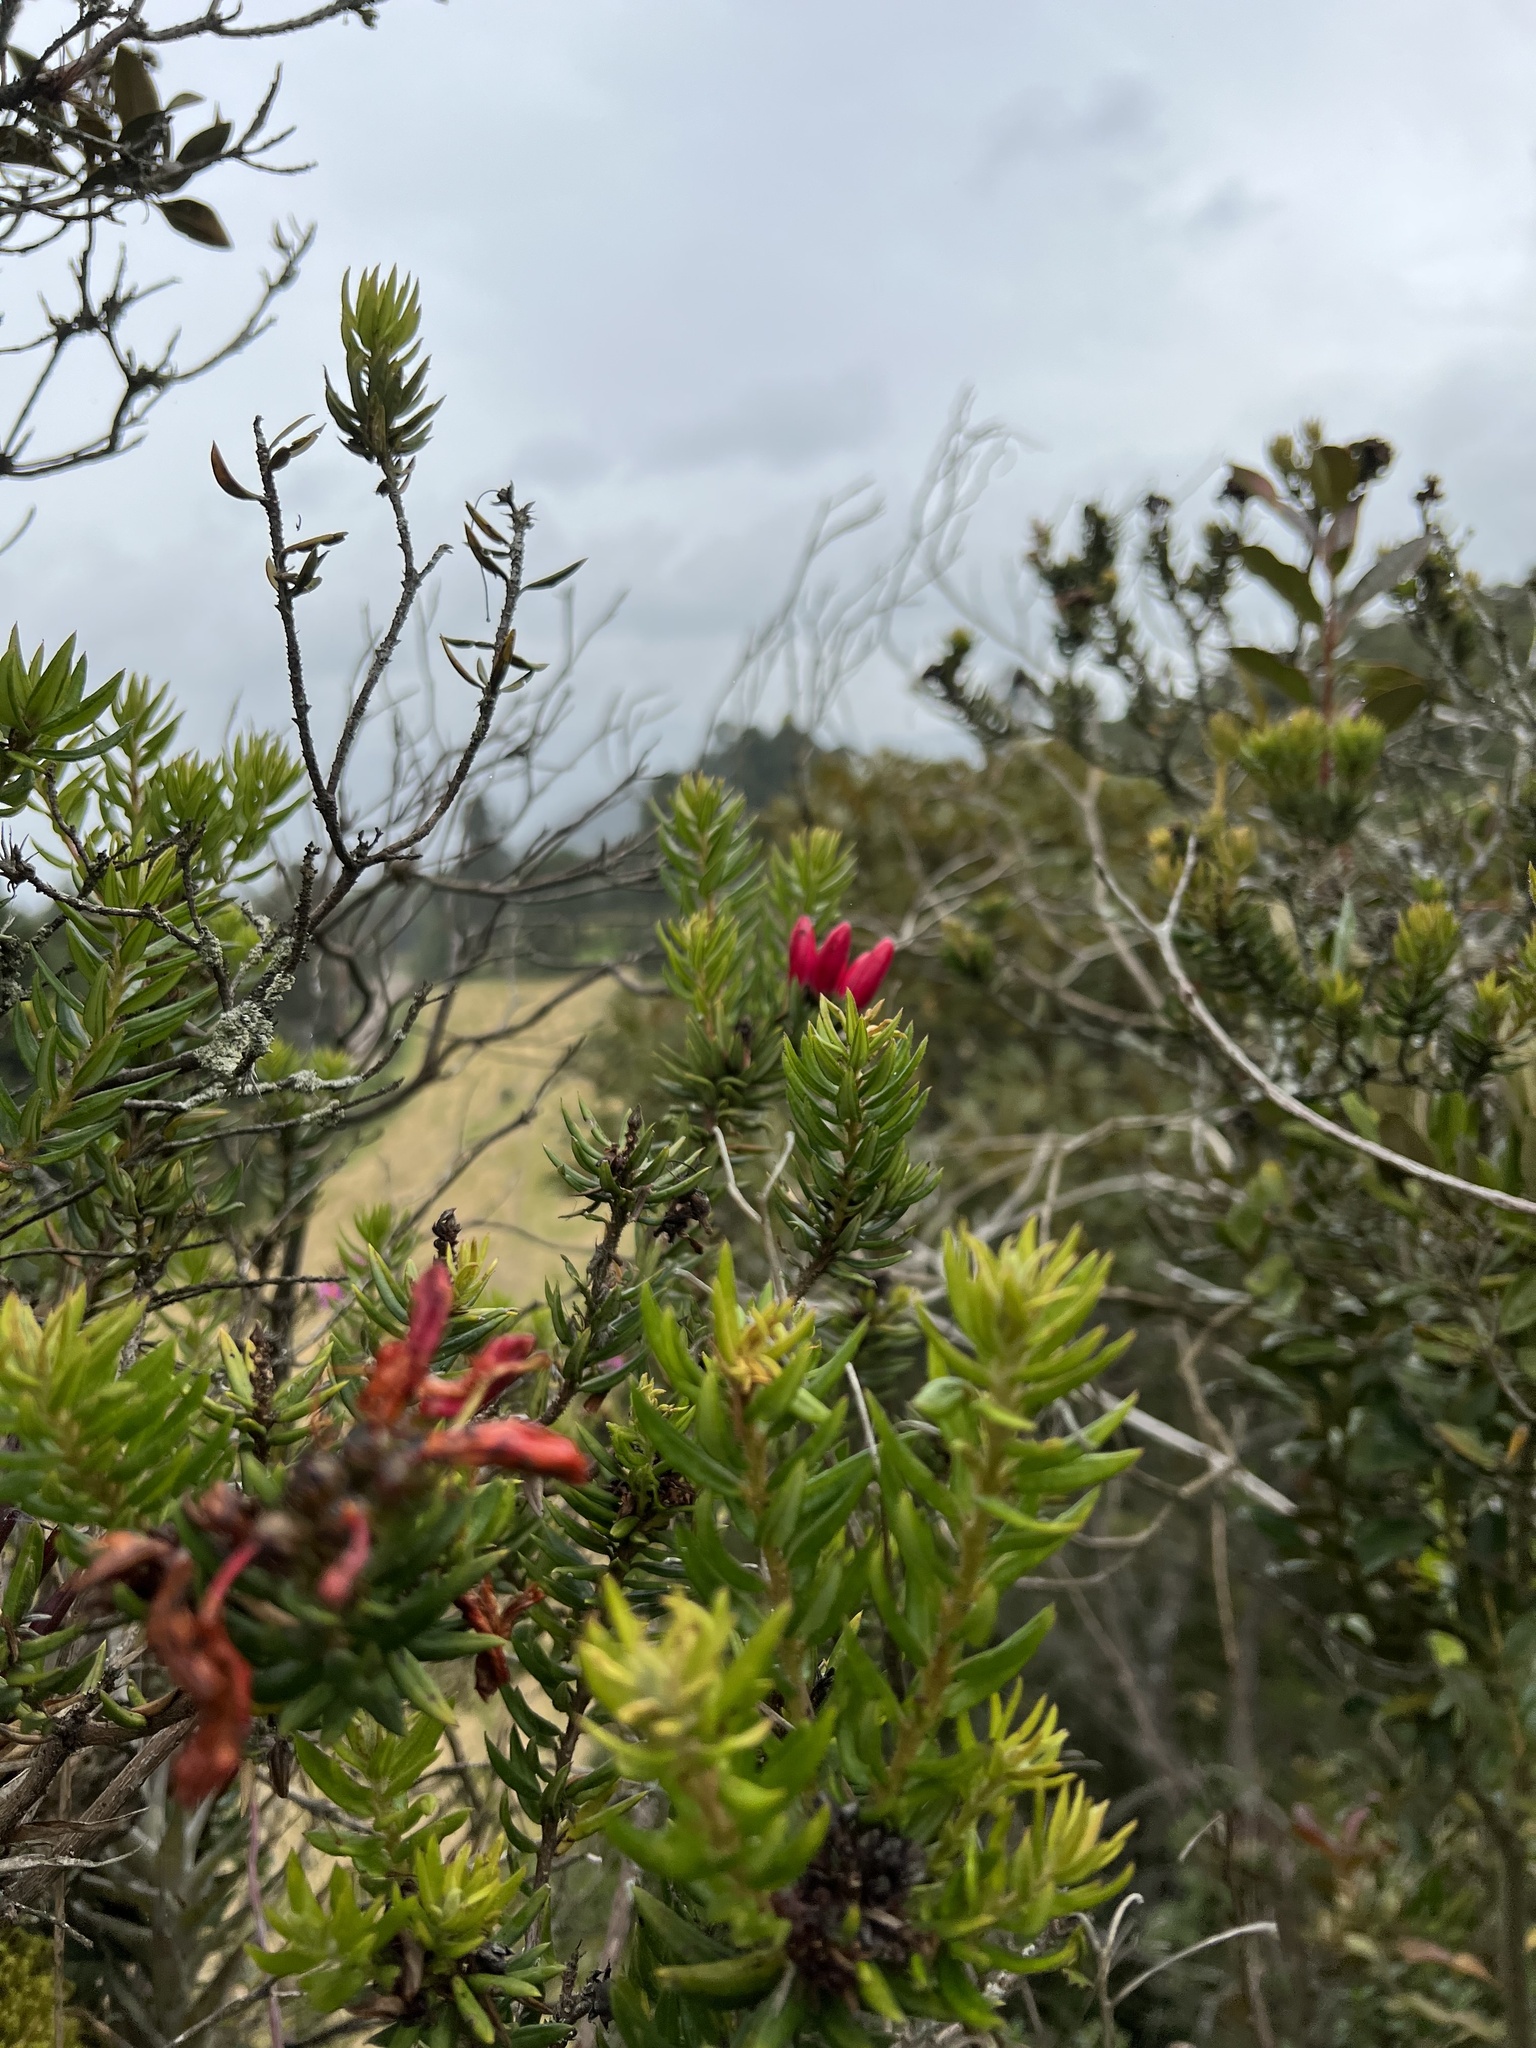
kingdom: Plantae
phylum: Tracheophyta
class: Magnoliopsida
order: Ericales
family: Ericaceae
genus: Bejaria
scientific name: Bejaria resinosa
